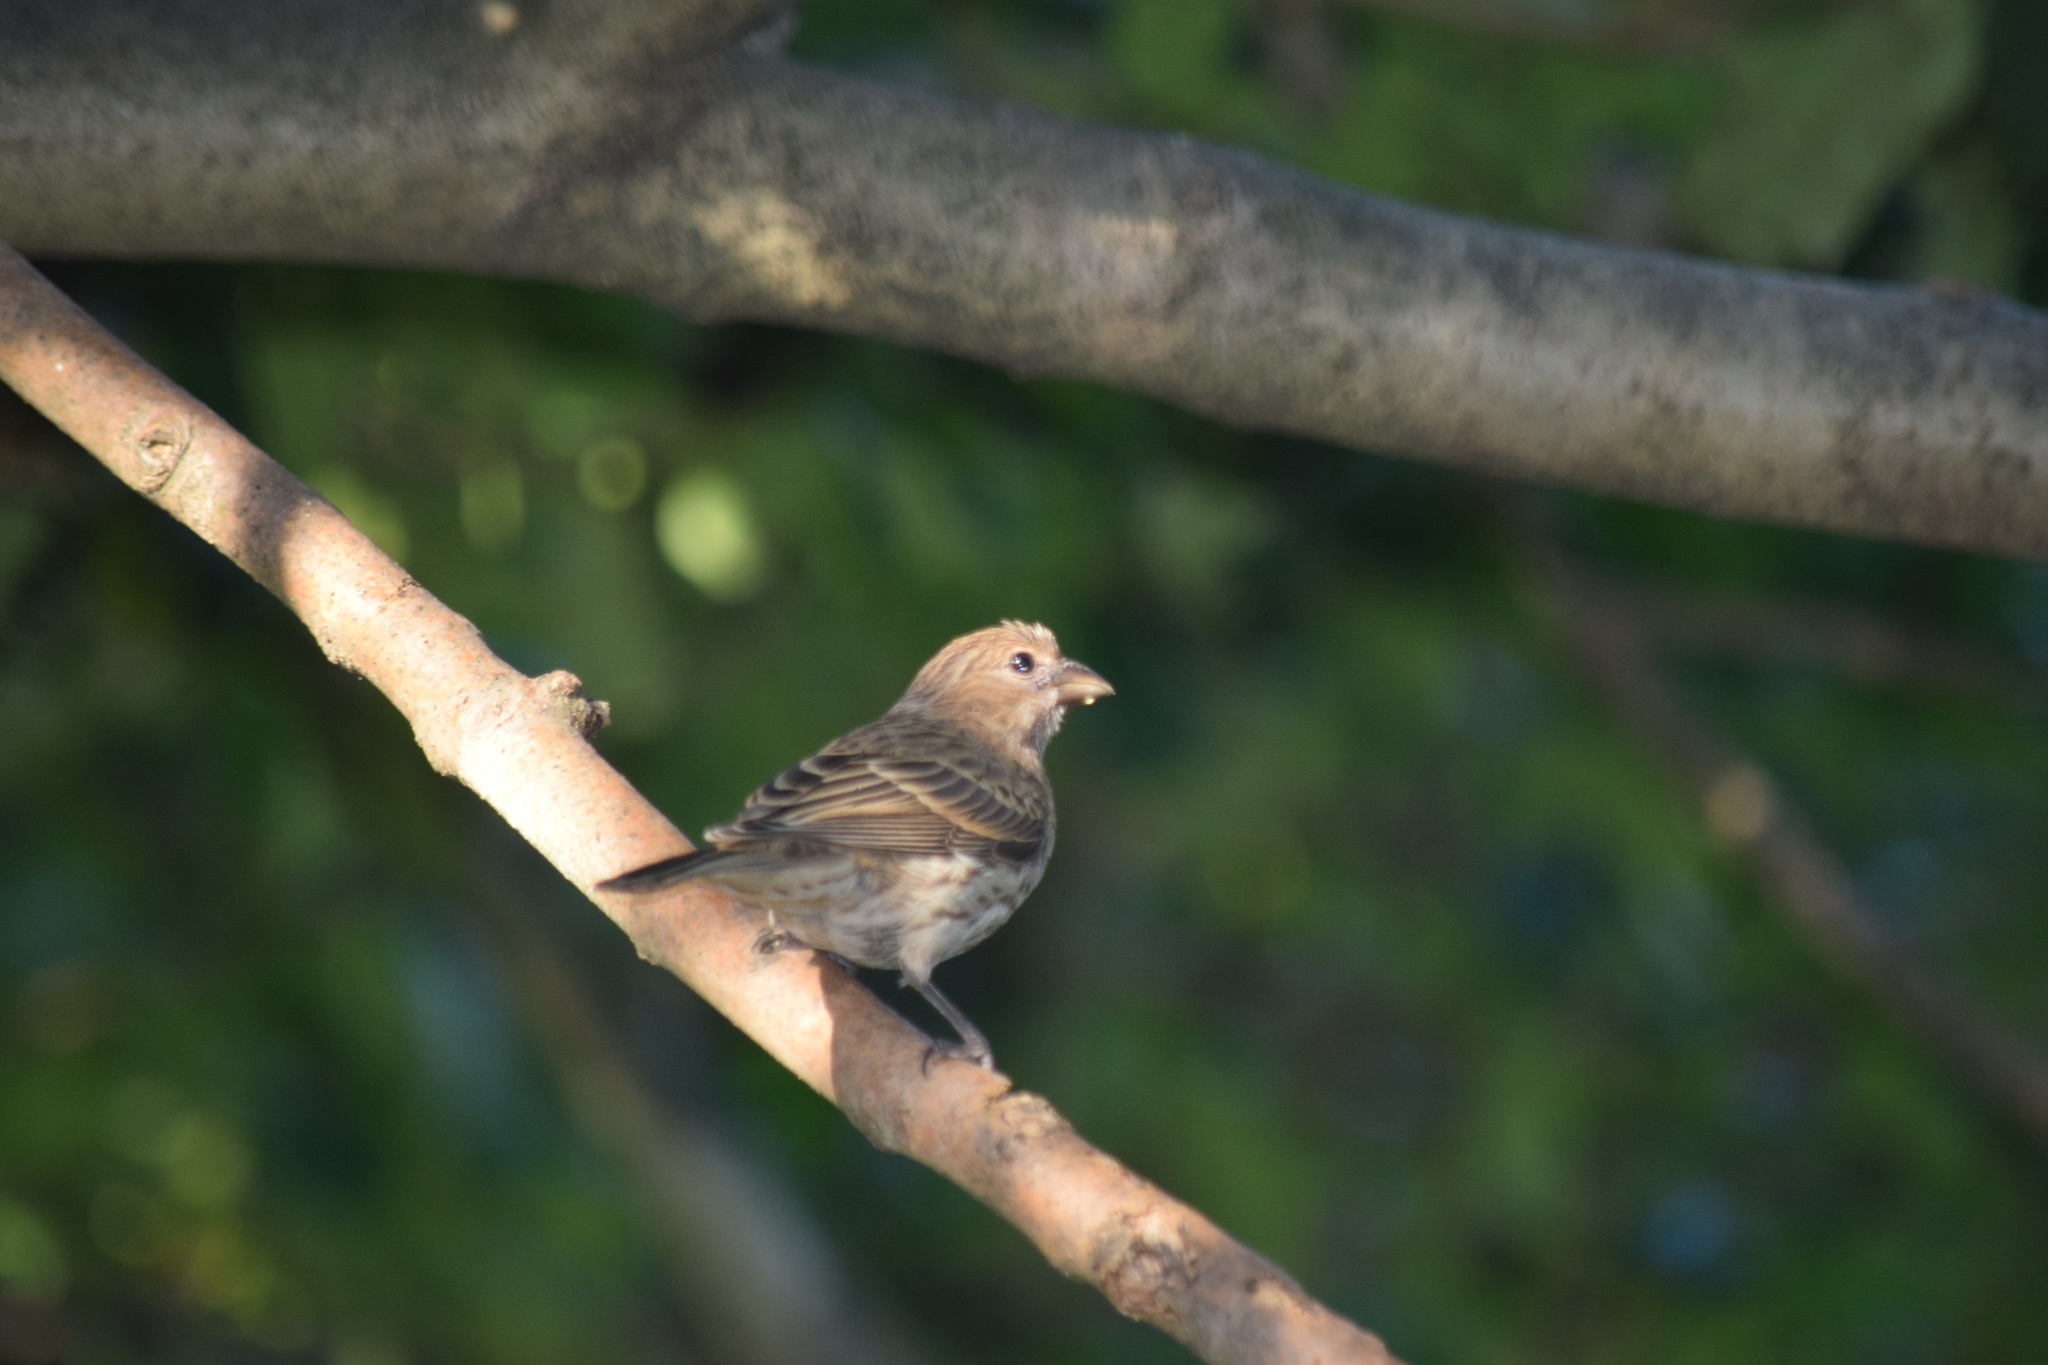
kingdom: Animalia
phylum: Chordata
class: Aves
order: Passeriformes
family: Fringillidae
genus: Haemorhous
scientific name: Haemorhous mexicanus
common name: House finch
